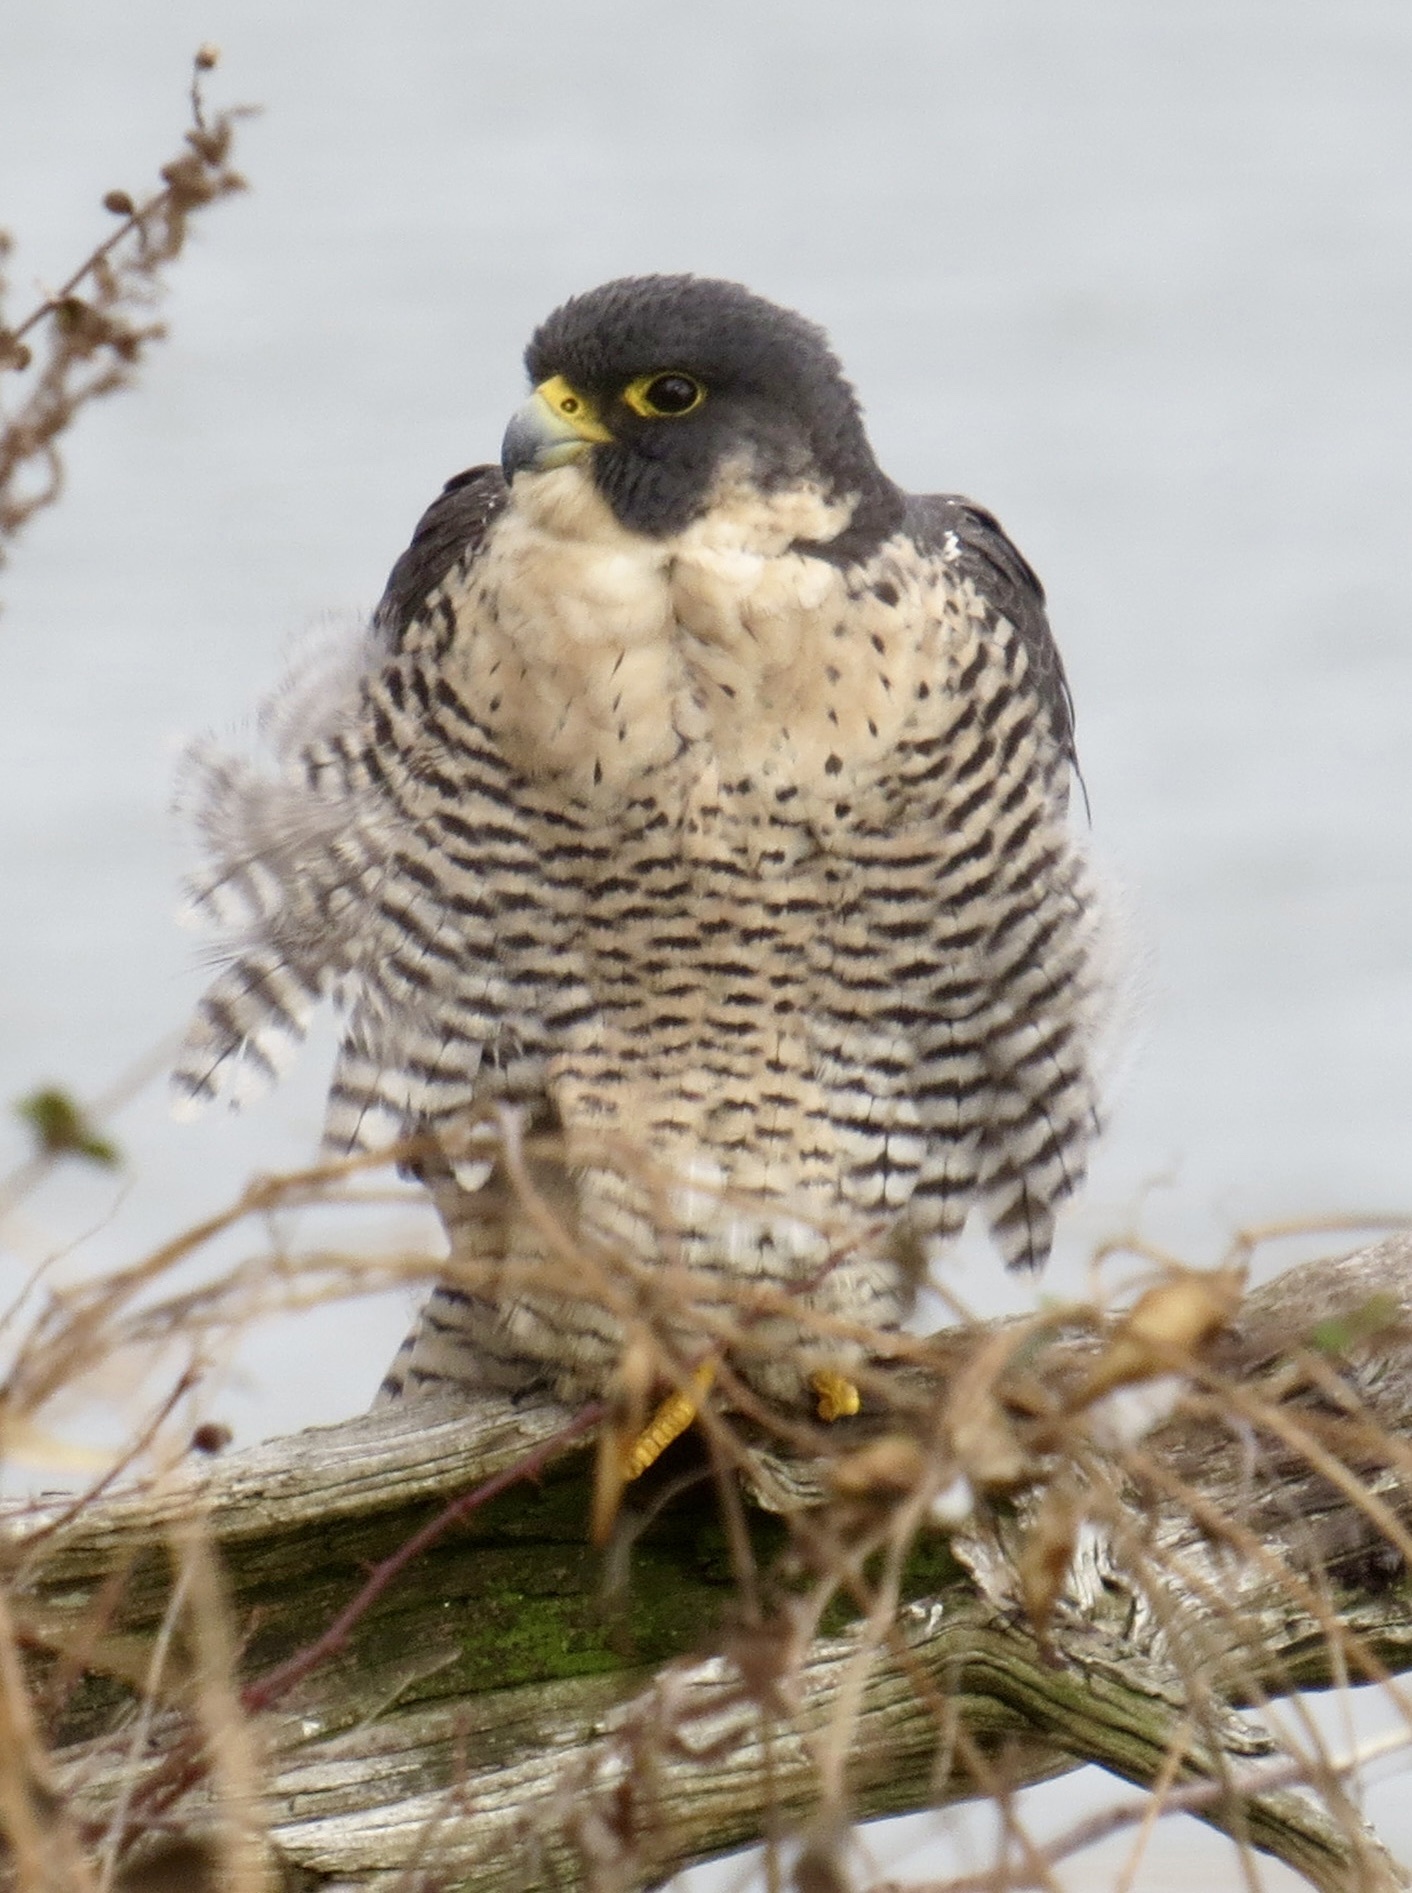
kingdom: Animalia
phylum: Chordata
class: Aves
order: Falconiformes
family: Falconidae
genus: Falco
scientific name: Falco peregrinus
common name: Peregrine falcon
